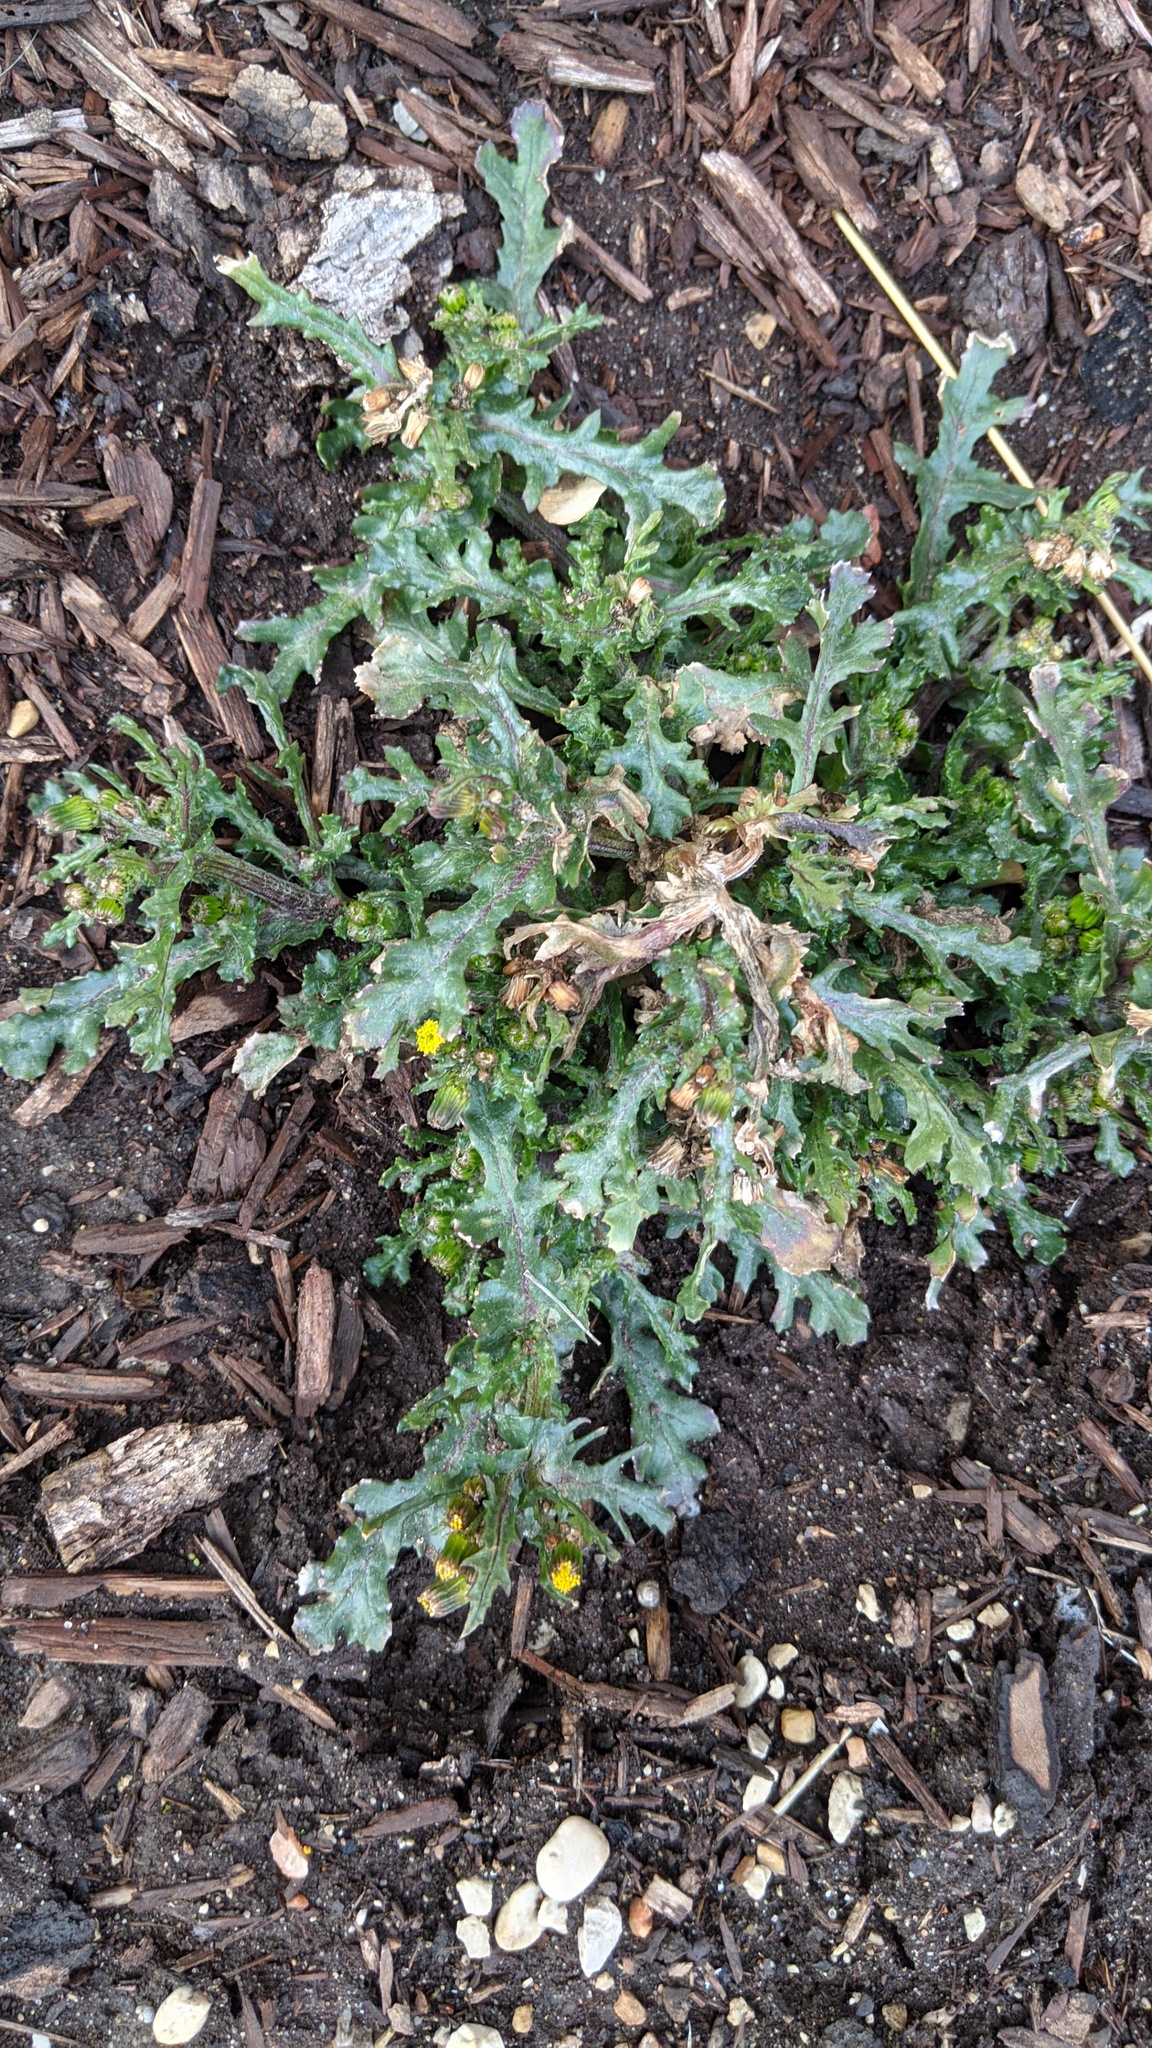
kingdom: Plantae
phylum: Tracheophyta
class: Magnoliopsida
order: Asterales
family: Asteraceae
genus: Senecio
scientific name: Senecio vulgaris
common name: Old-man-in-the-spring
